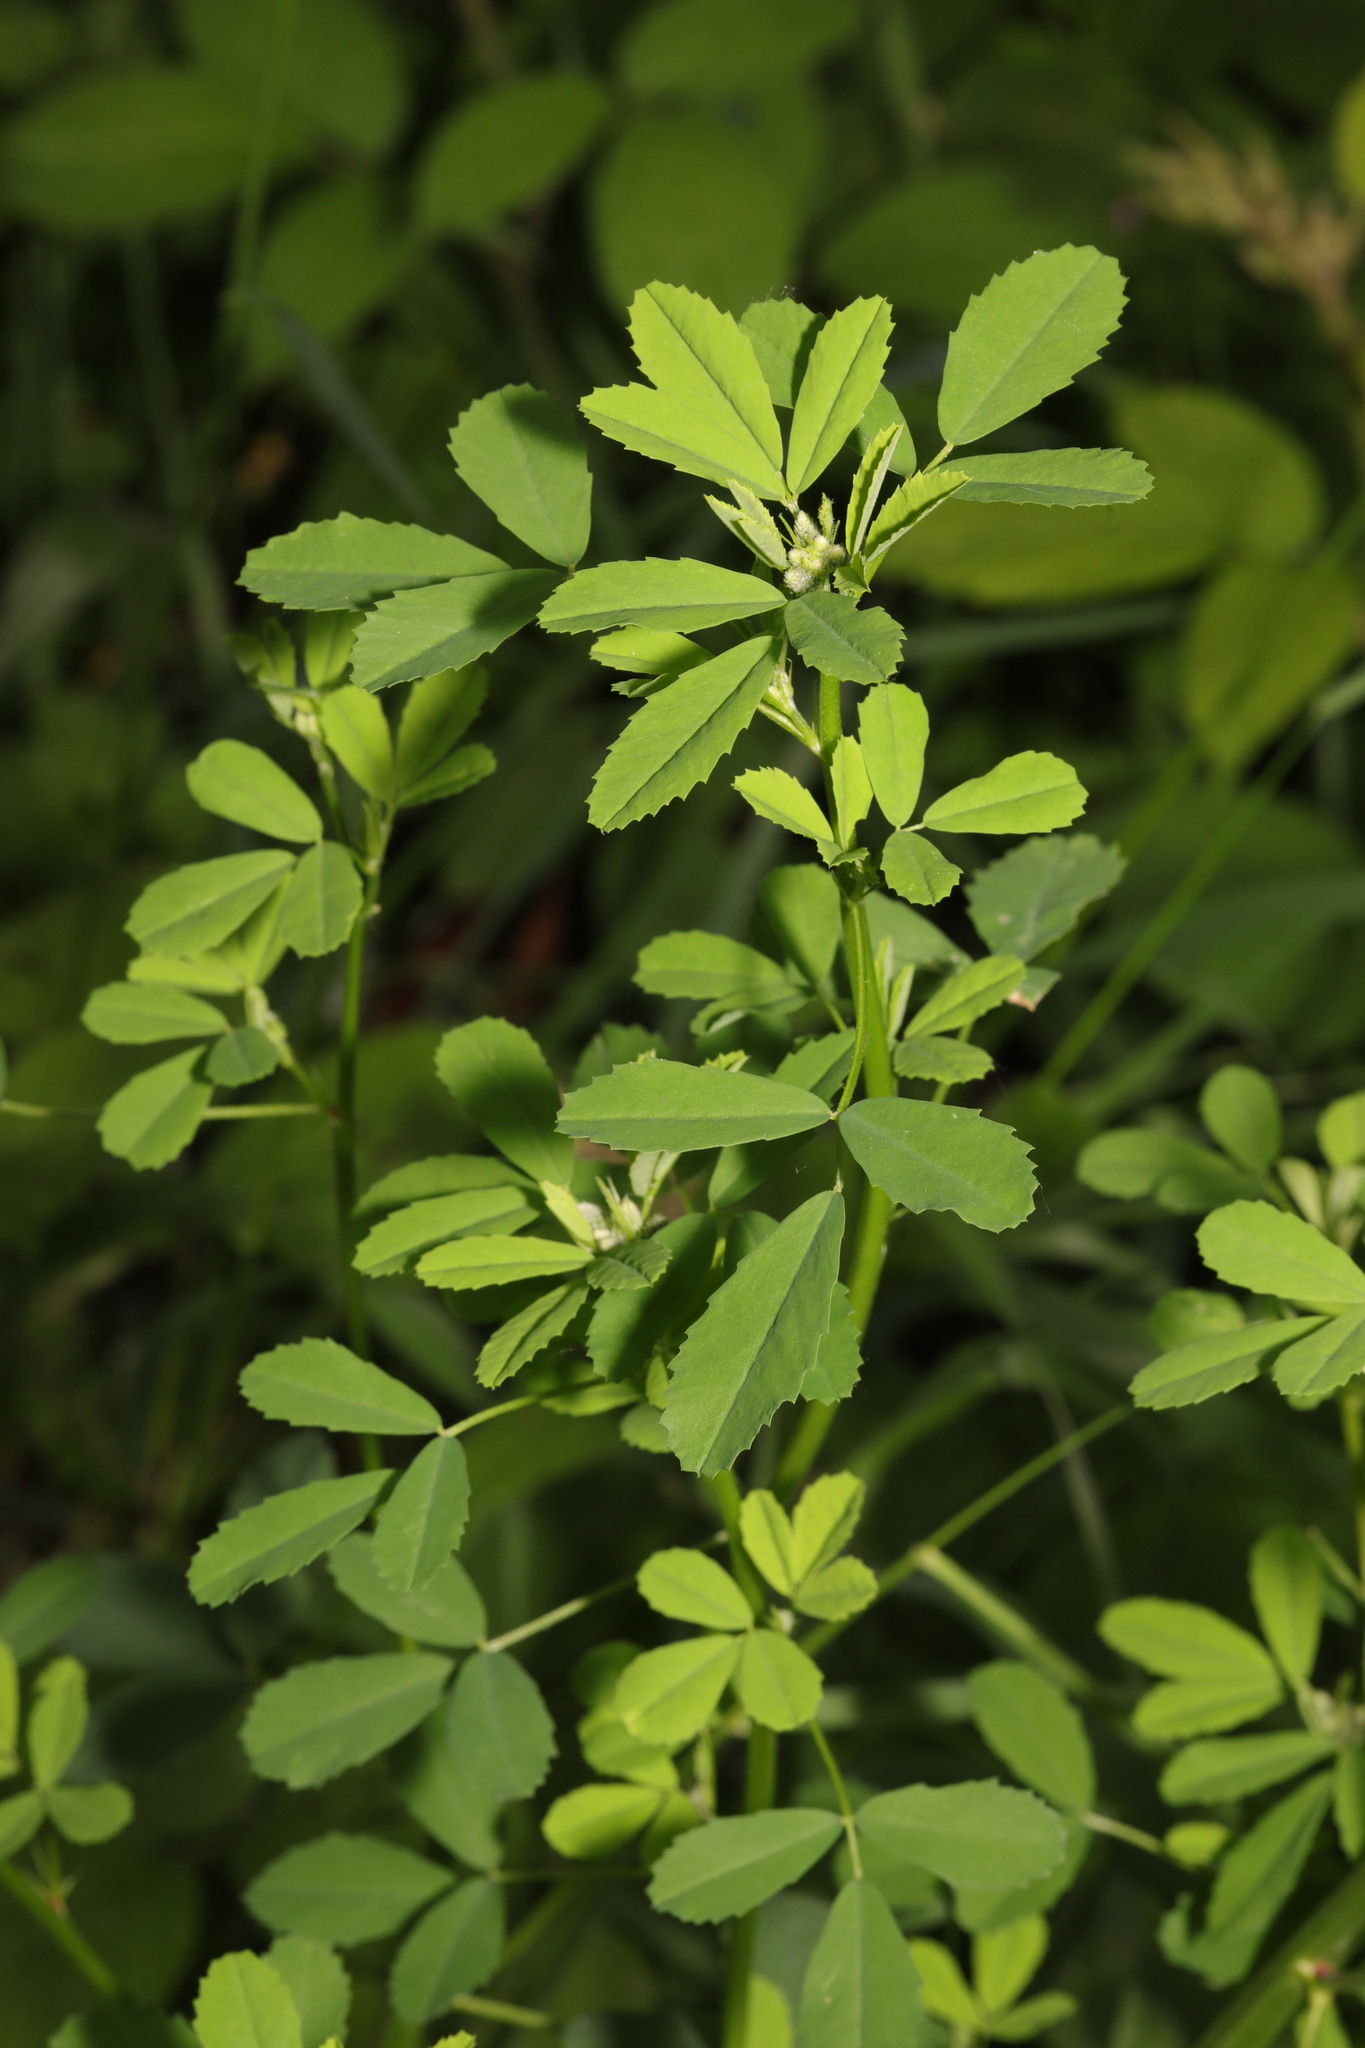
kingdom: Plantae
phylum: Tracheophyta
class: Magnoliopsida
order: Fabales
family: Fabaceae
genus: Melilotus
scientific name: Melilotus albus
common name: White melilot
